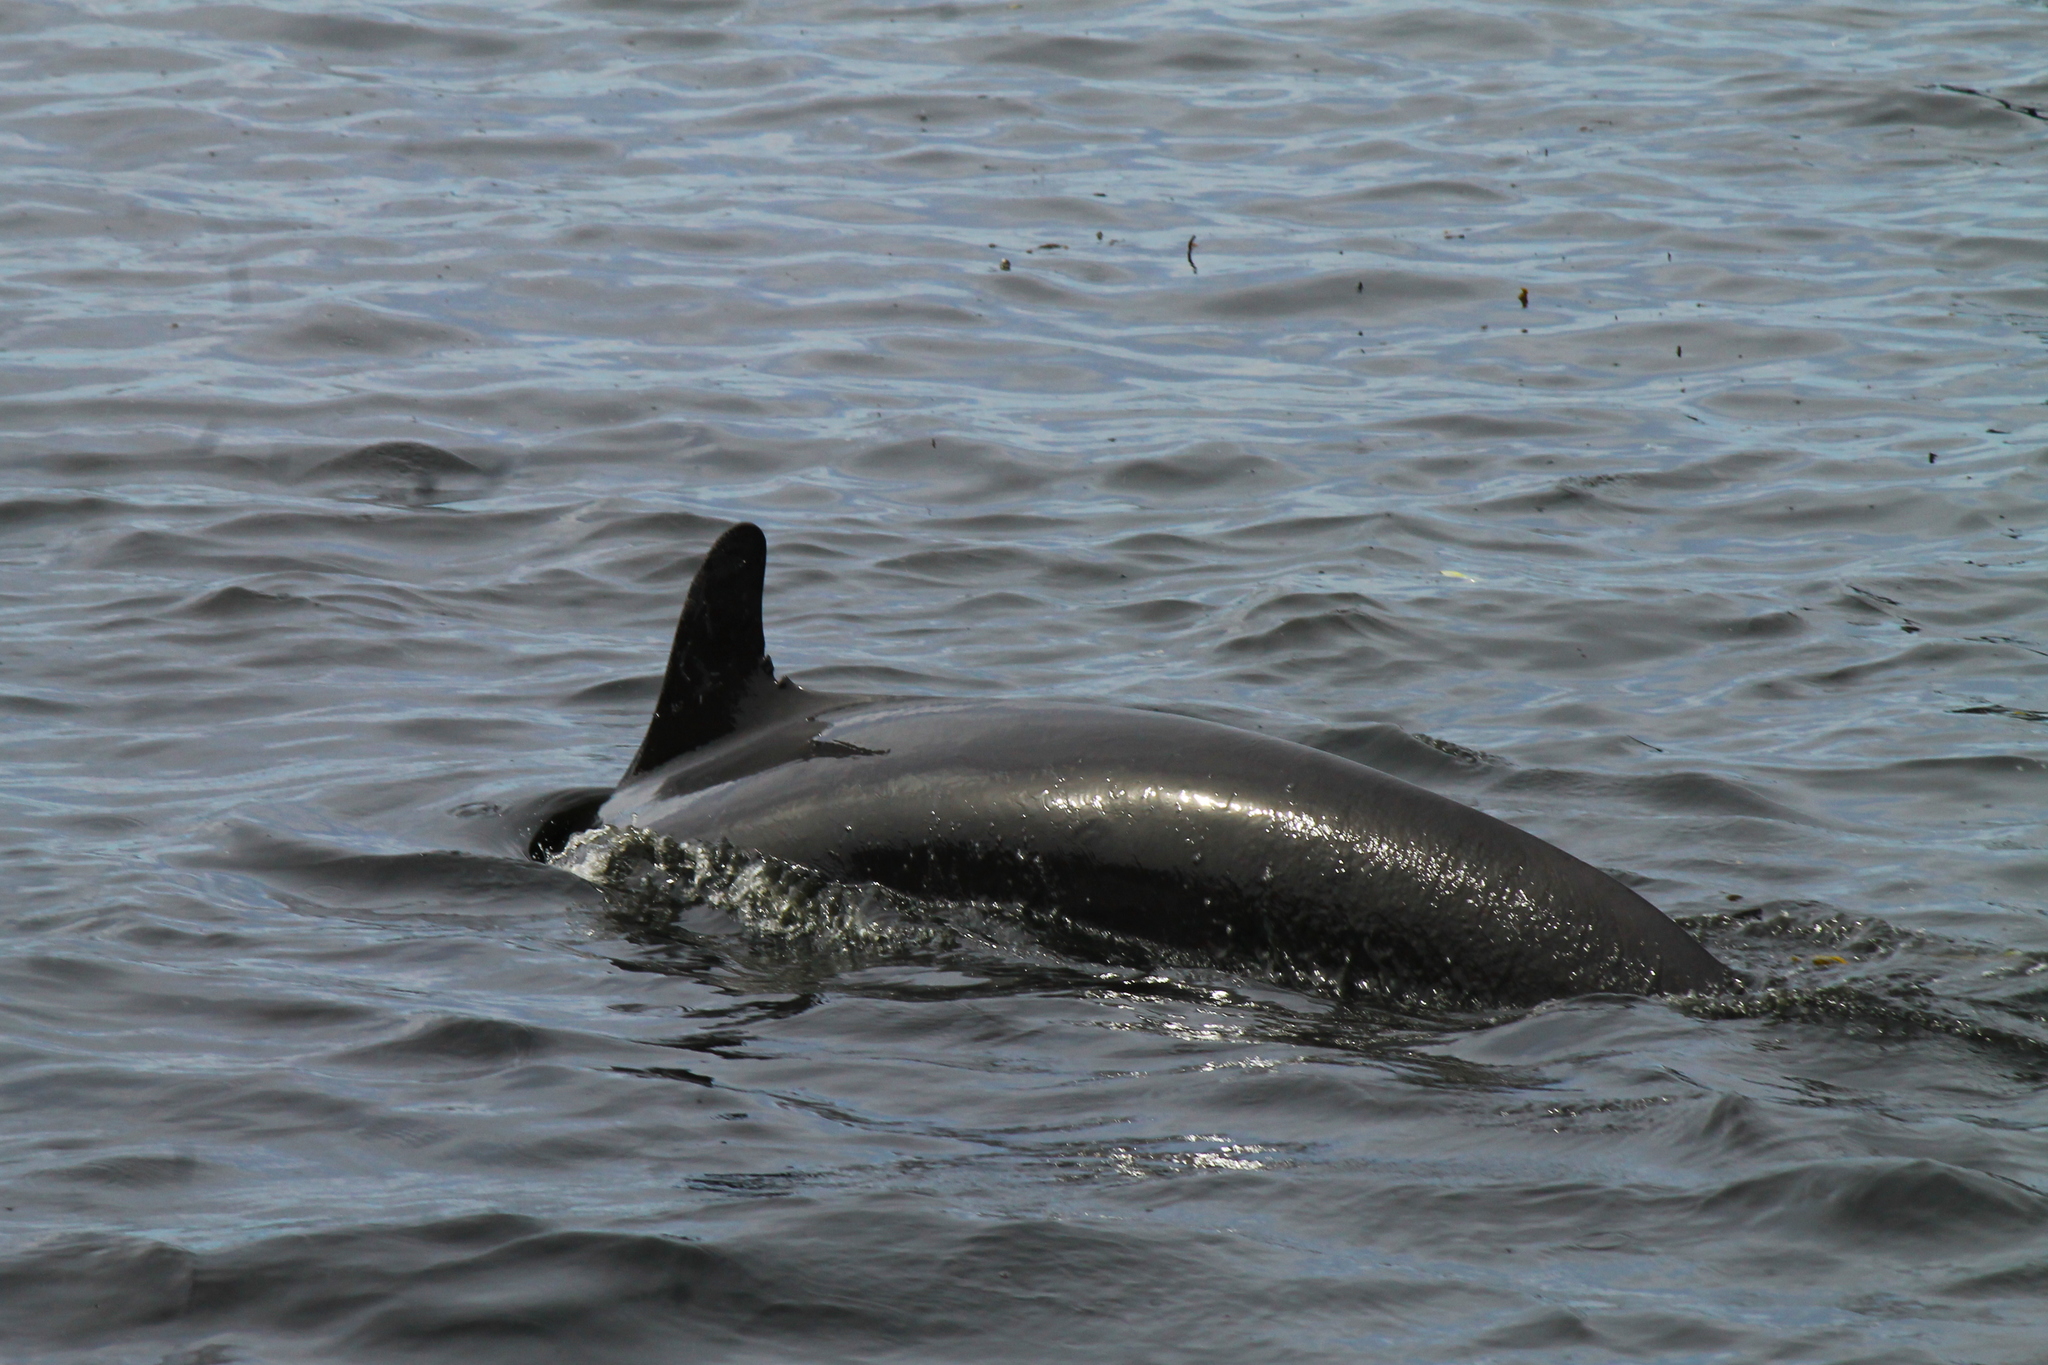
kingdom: Animalia
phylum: Chordata
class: Mammalia
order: Cetacea
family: Delphinidae
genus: Pseudorca
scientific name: Pseudorca crassidens
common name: False killer whale
